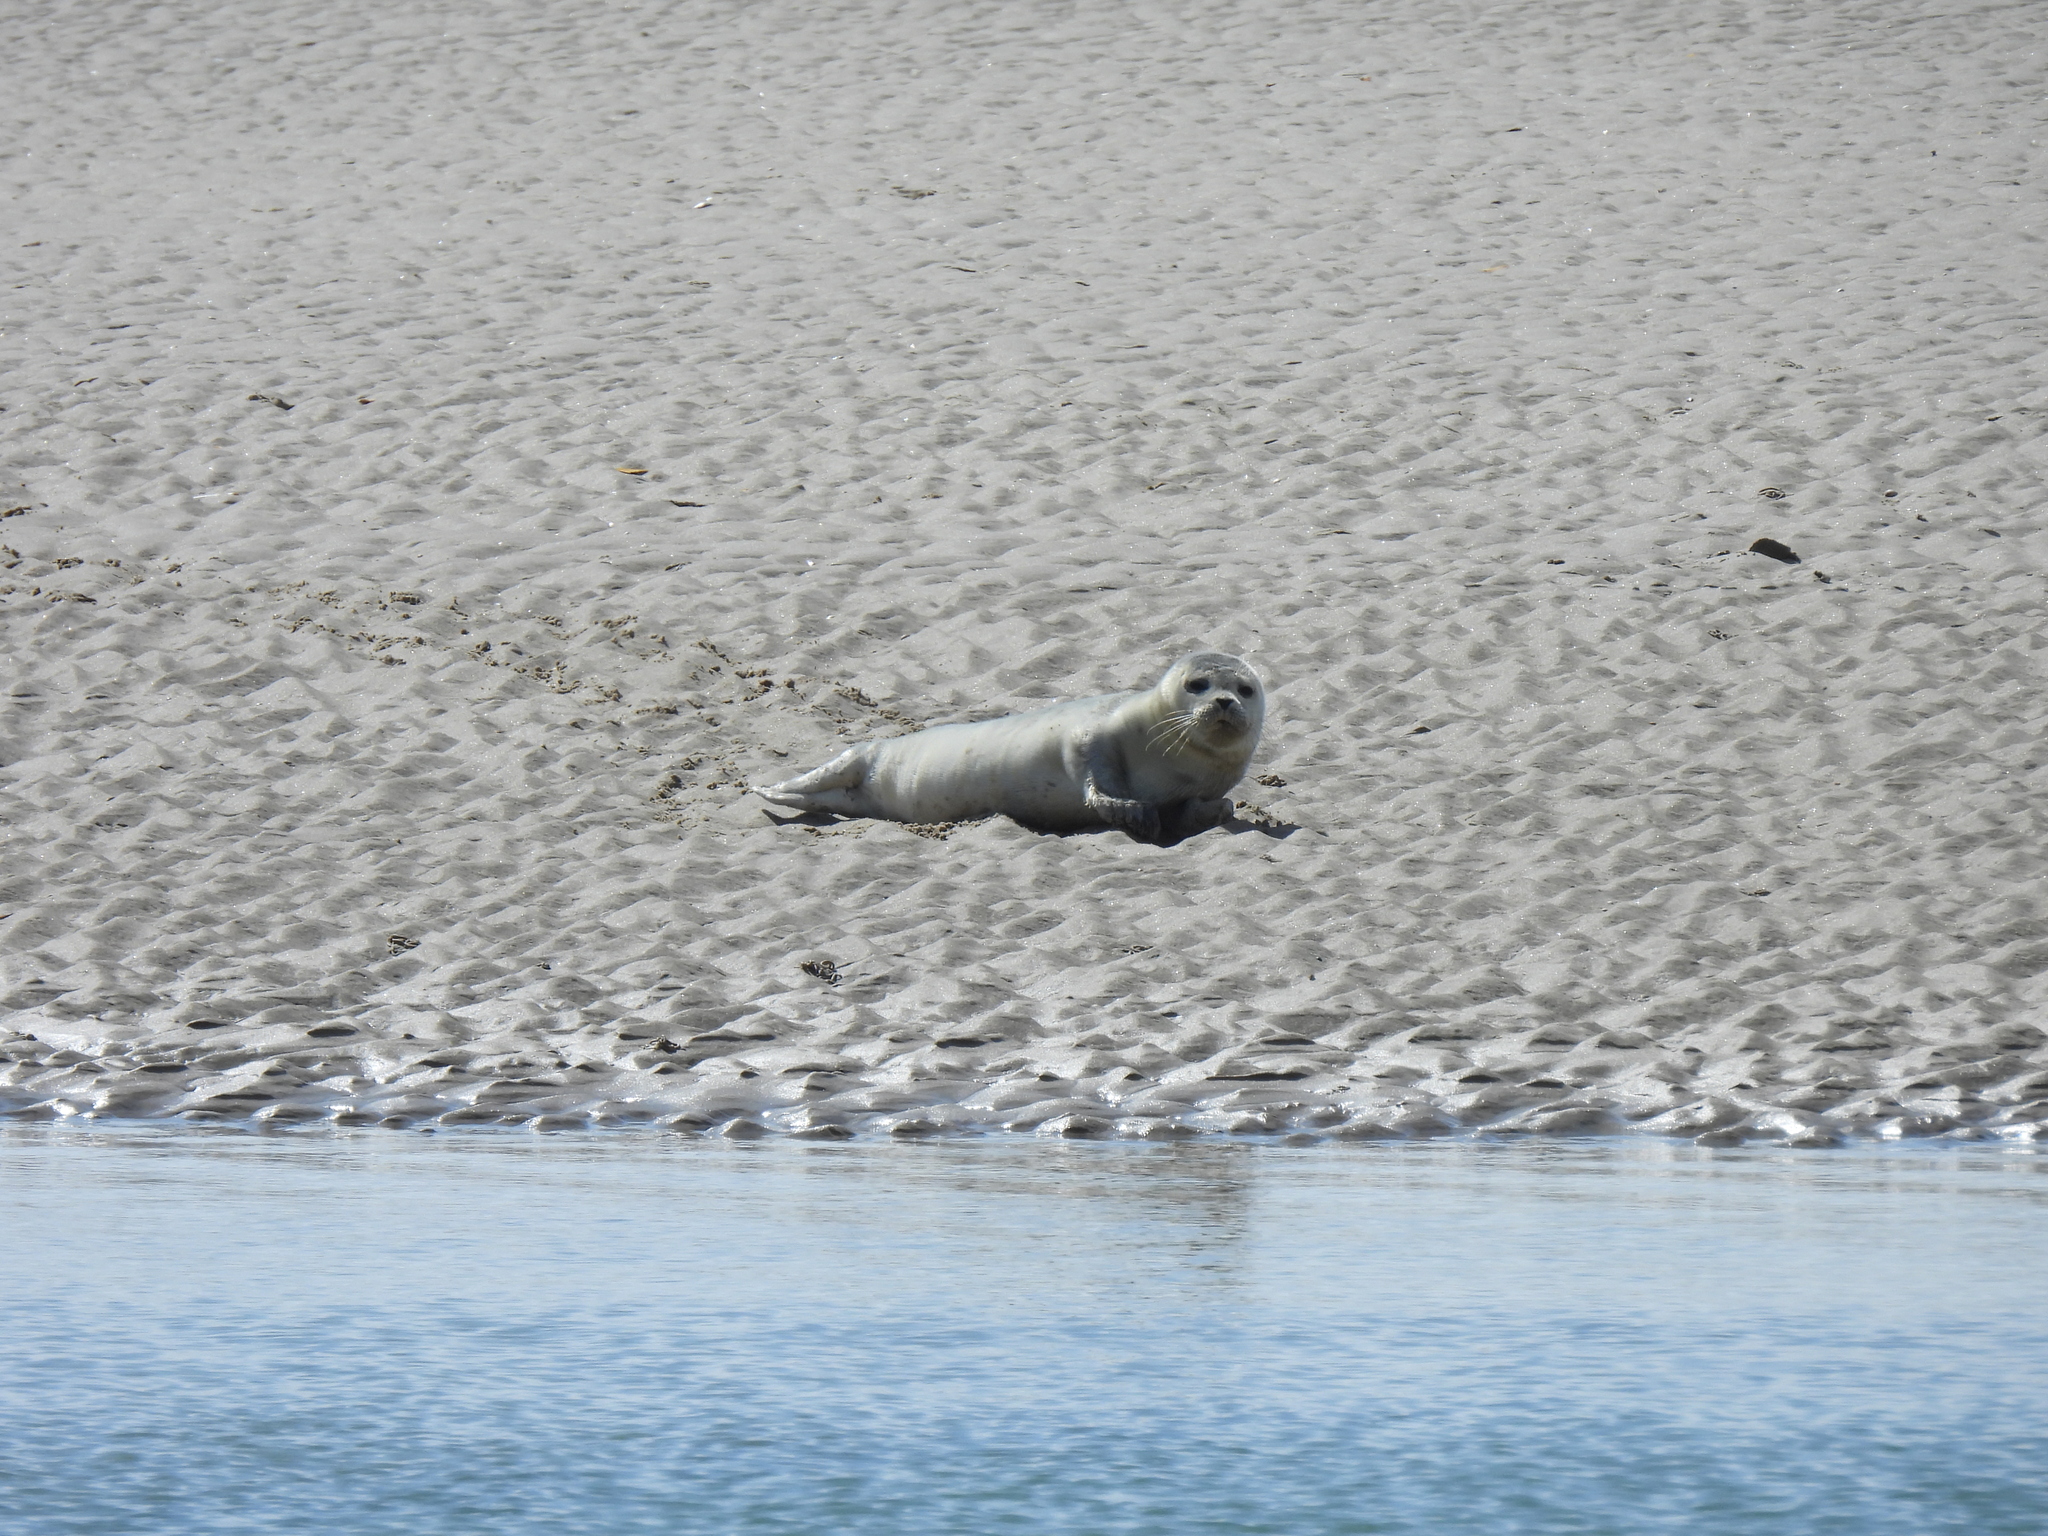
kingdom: Animalia
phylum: Chordata
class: Mammalia
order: Carnivora
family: Phocidae
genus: Phoca
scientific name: Phoca vitulina
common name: Harbor seal
